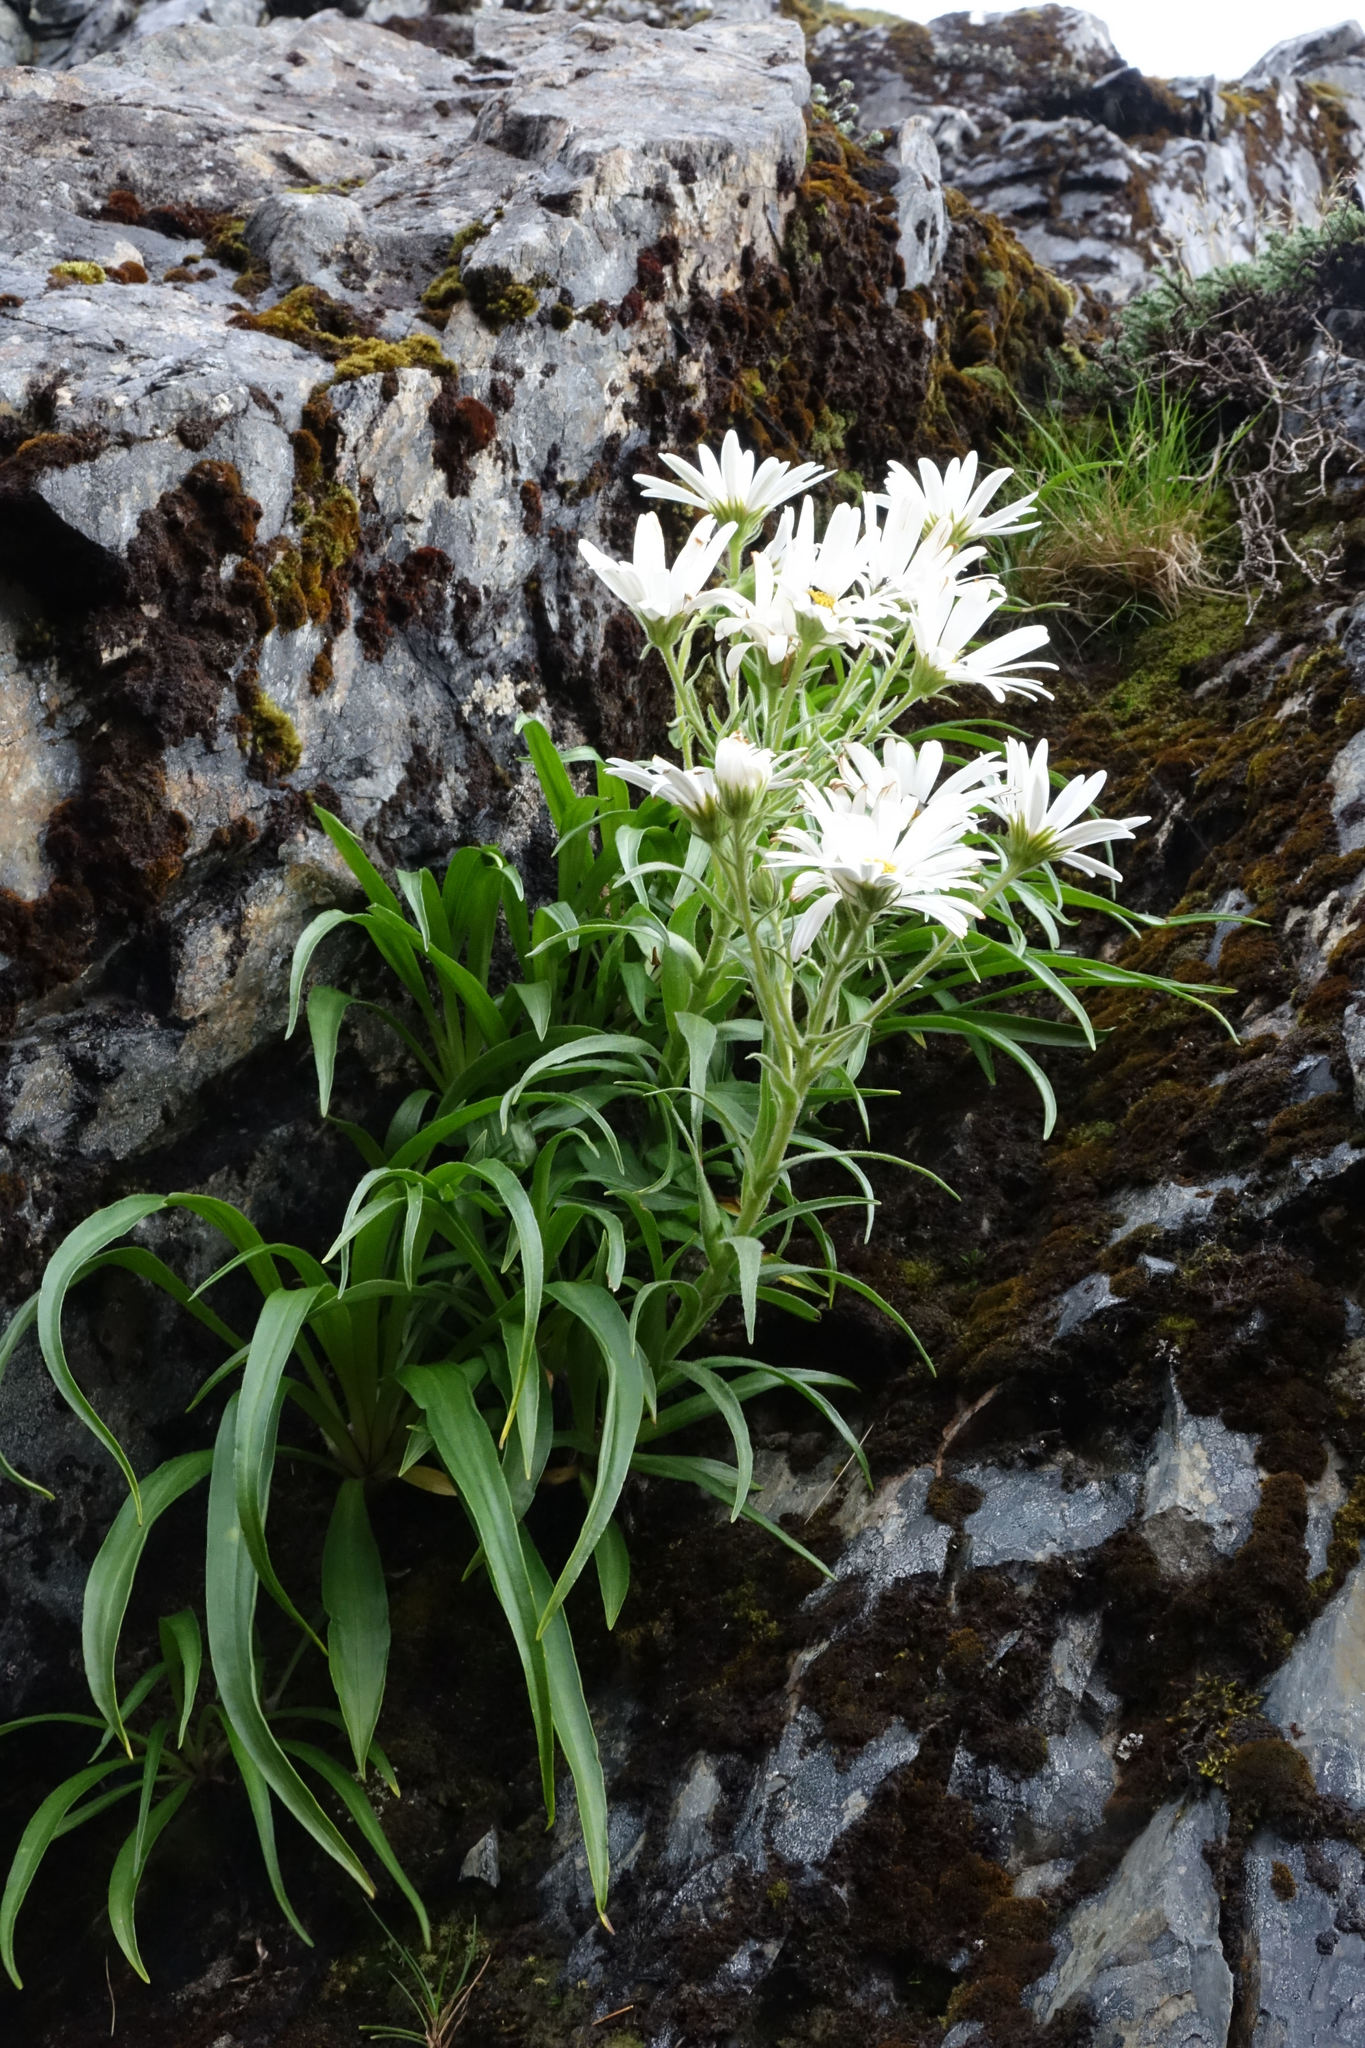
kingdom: Plantae
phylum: Tracheophyta
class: Magnoliopsida
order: Asterales
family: Asteraceae
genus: Dolichoglottis
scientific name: Dolichoglottis scorzoneroides
